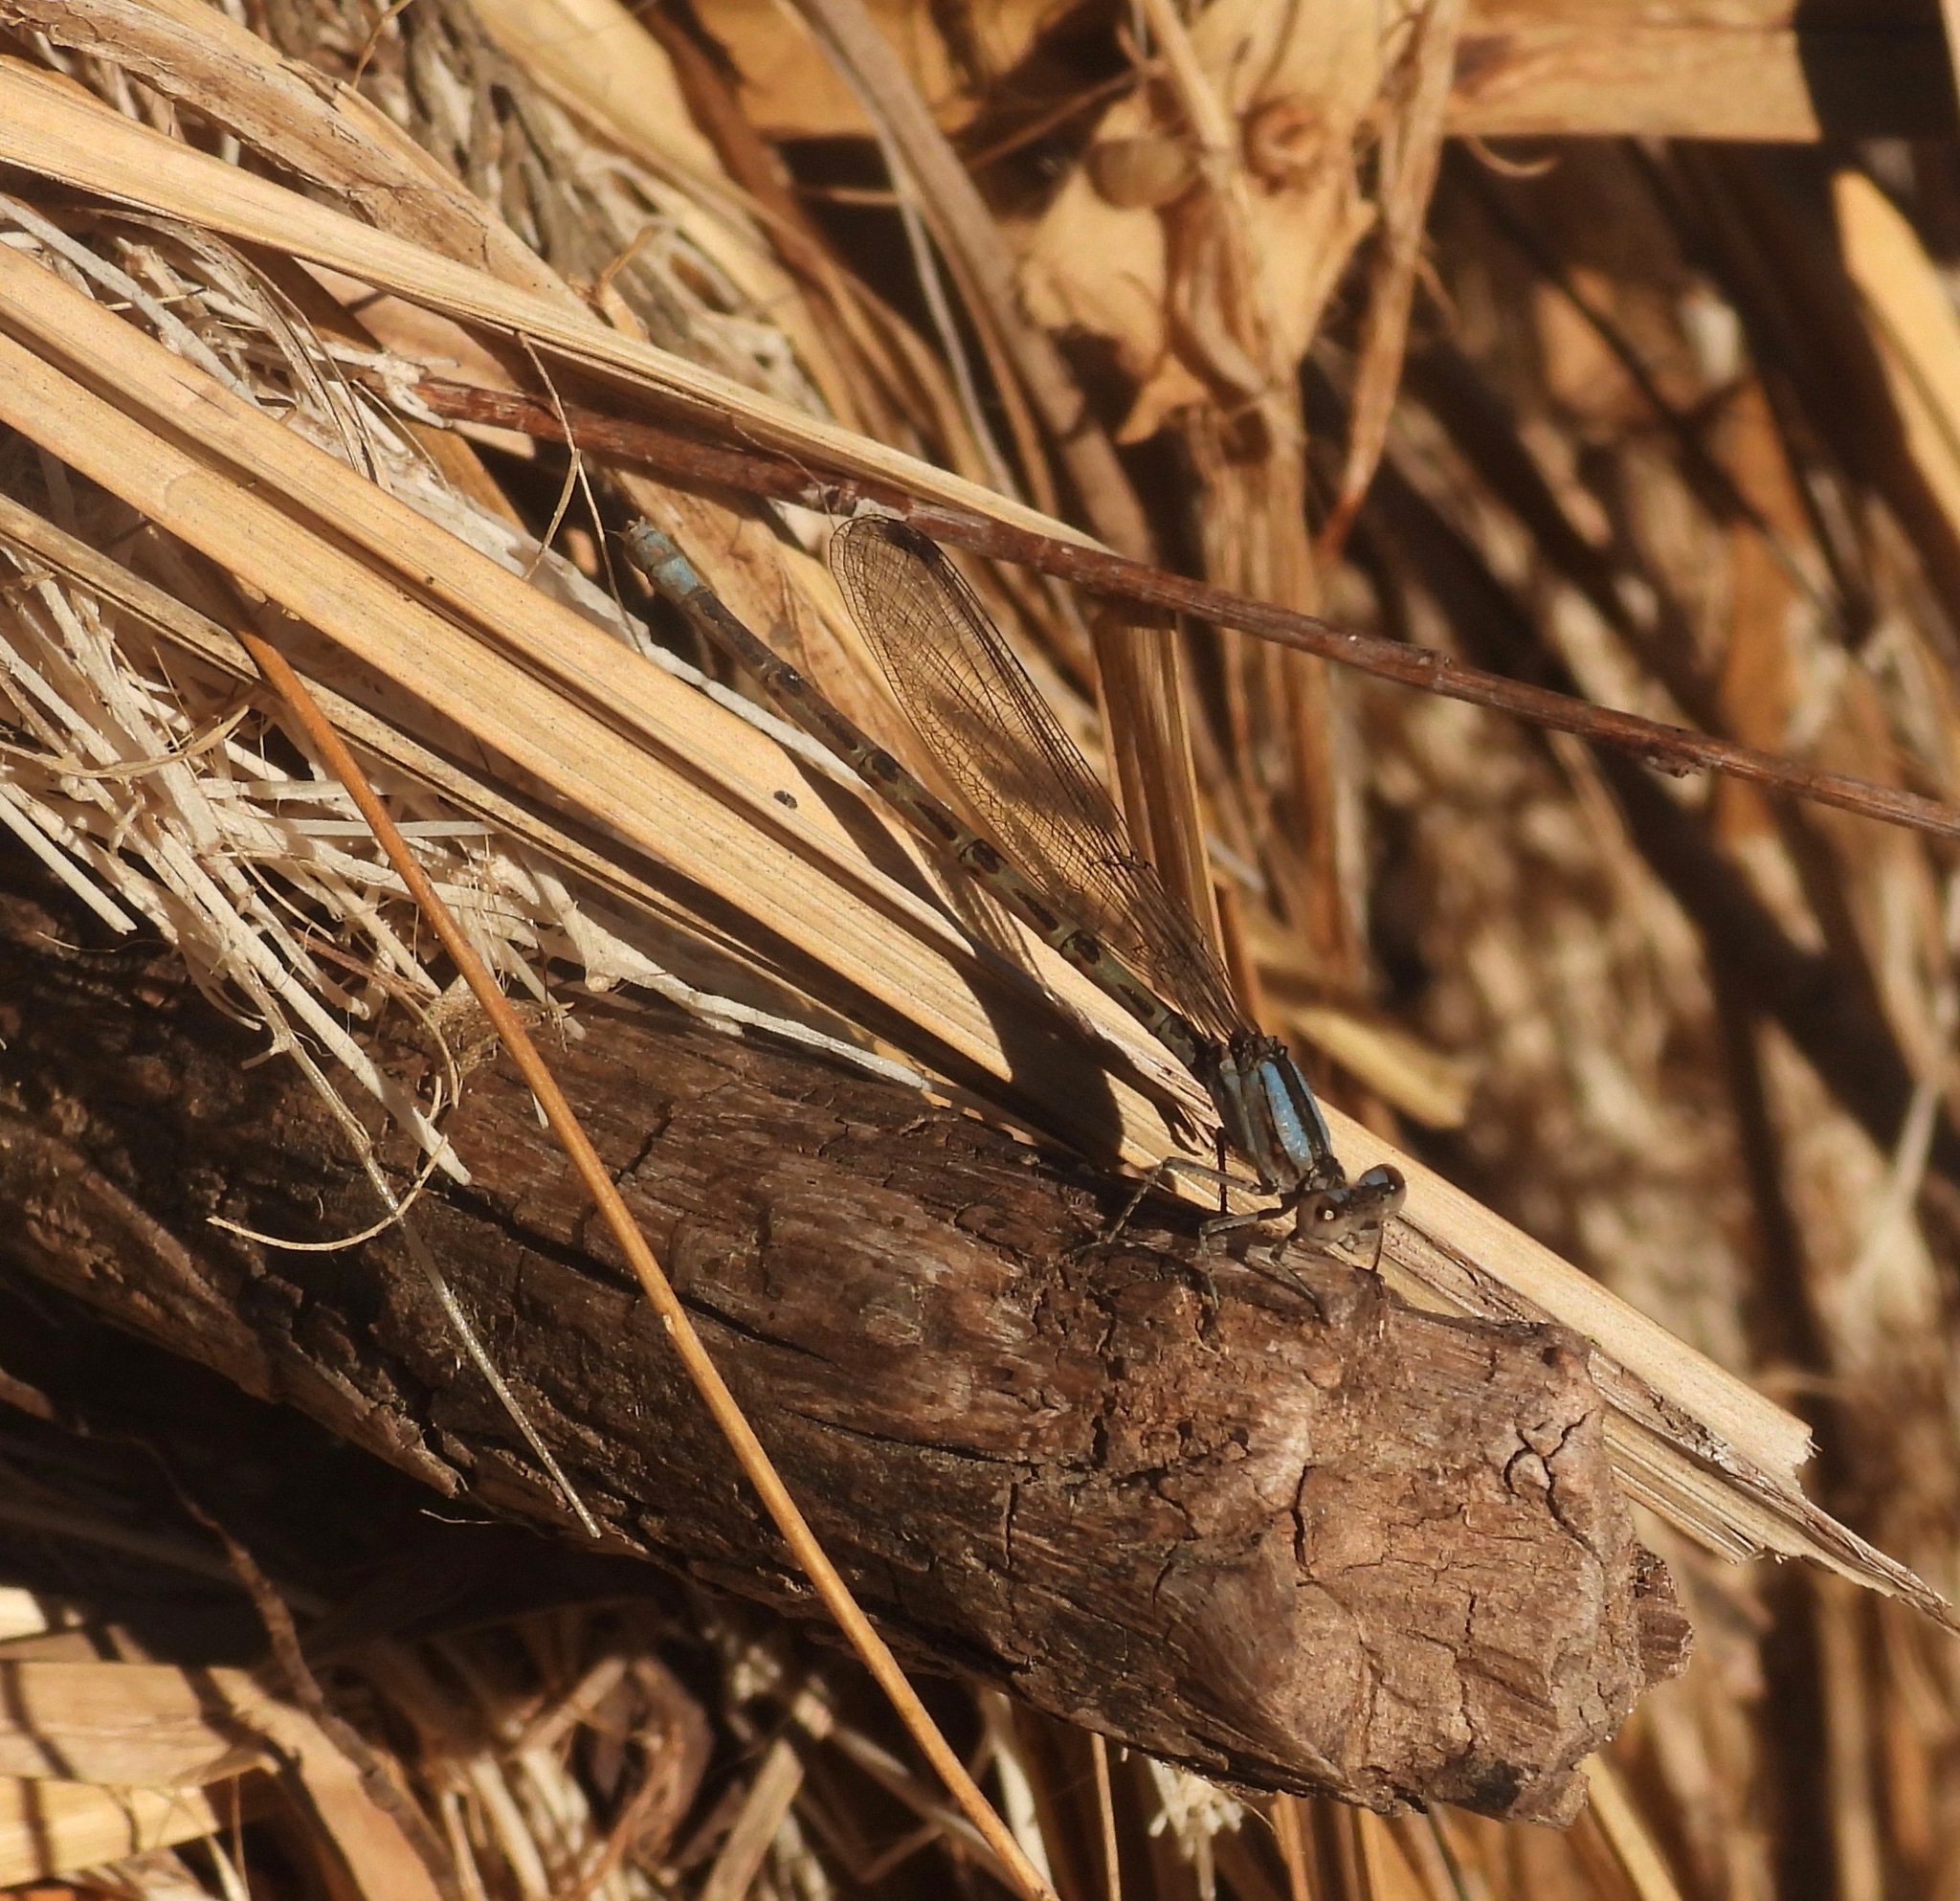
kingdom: Animalia
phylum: Arthropoda
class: Insecta
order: Odonata
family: Coenagrionidae
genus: Argia
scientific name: Argia immunda
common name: Kiowa dancer
